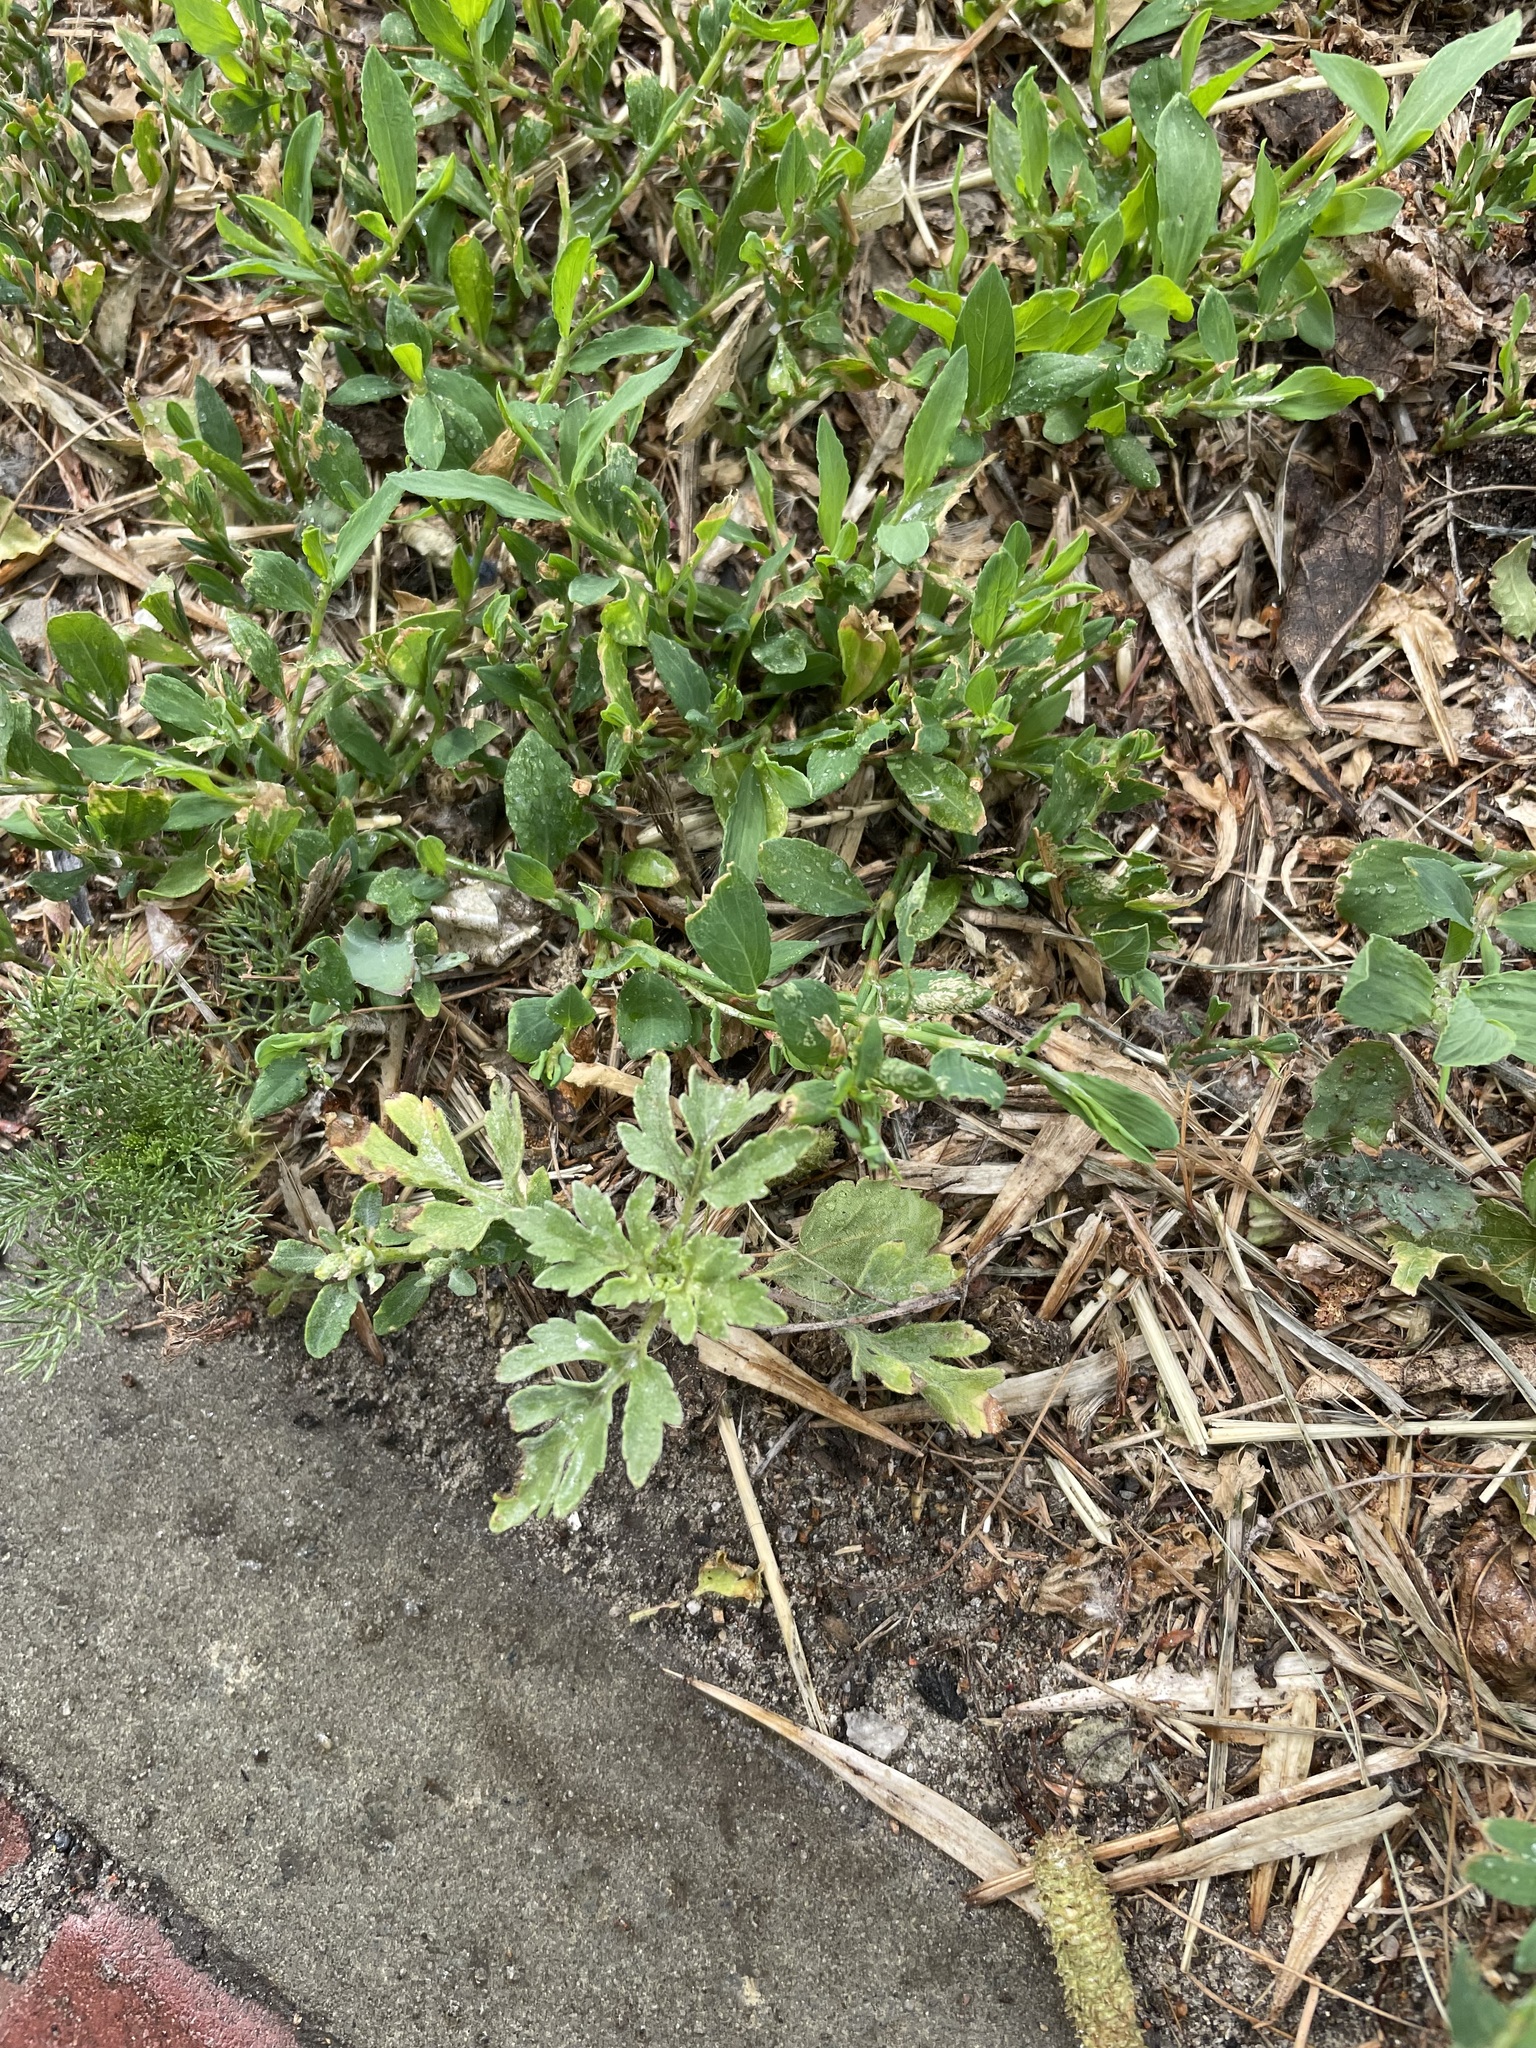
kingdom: Plantae
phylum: Tracheophyta
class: Magnoliopsida
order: Asterales
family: Asteraceae
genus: Cyclachaena
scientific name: Cyclachaena xanthiifolia
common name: Giant sumpweed
